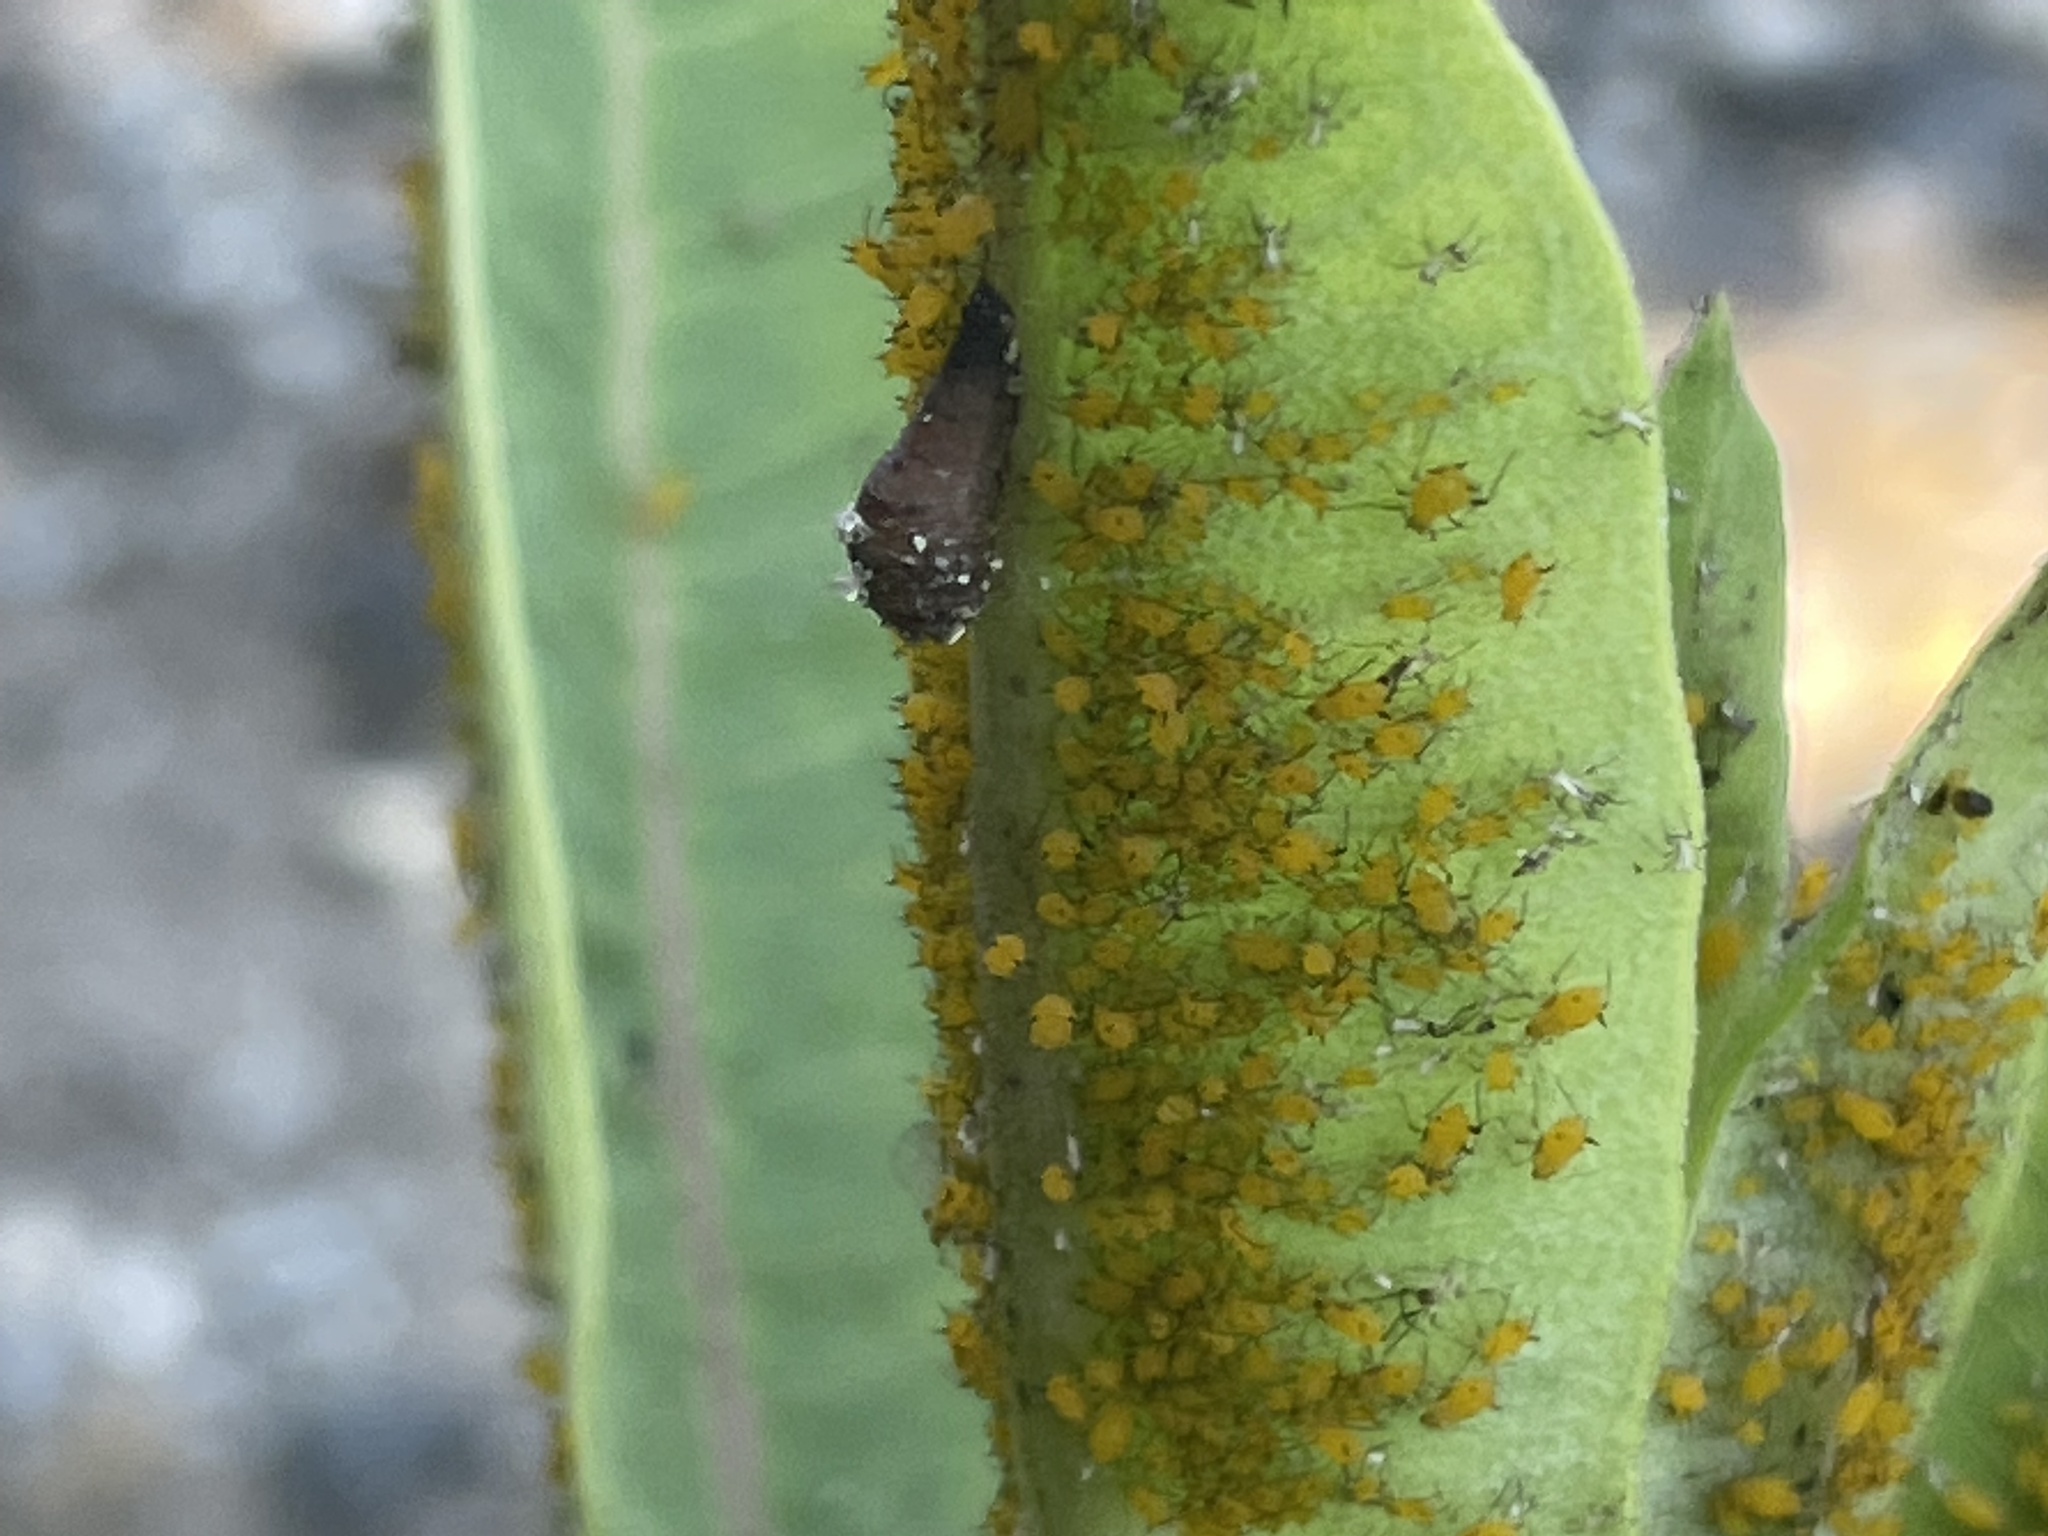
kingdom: Animalia
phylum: Arthropoda
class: Insecta
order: Hemiptera
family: Aphididae
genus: Aphis
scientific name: Aphis nerii
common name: Oleander aphid
